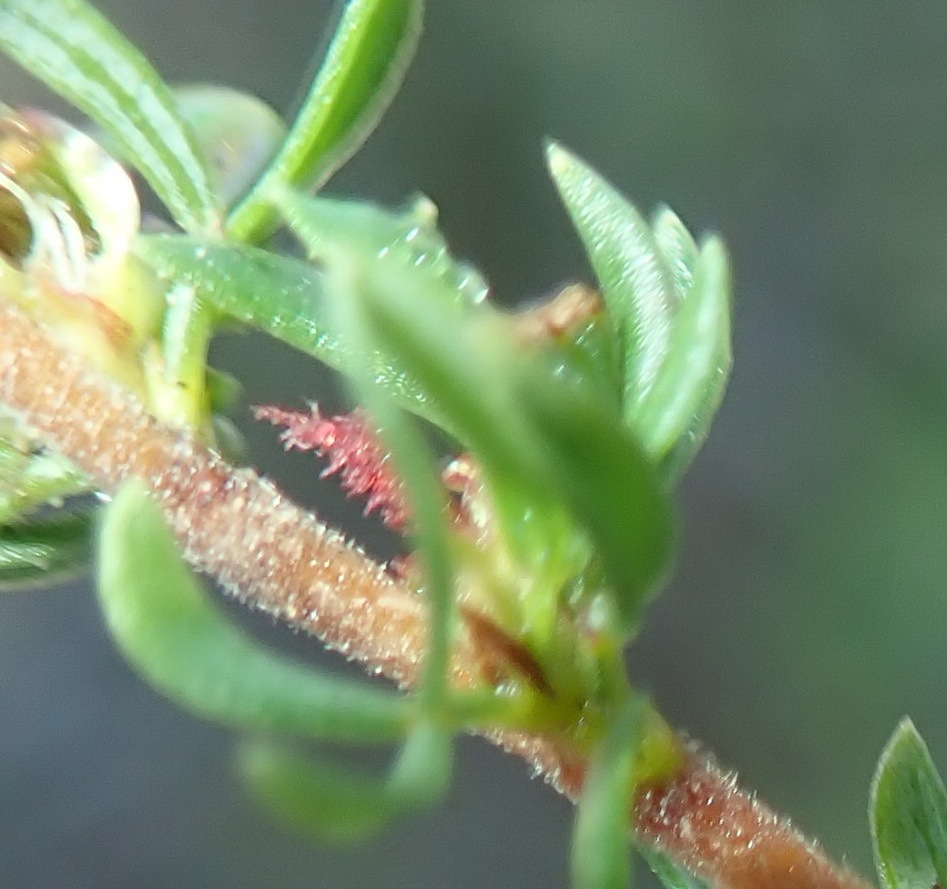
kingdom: Plantae
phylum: Tracheophyta
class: Magnoliopsida
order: Rosales
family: Rosaceae
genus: Cliffortia
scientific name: Cliffortia falcata
